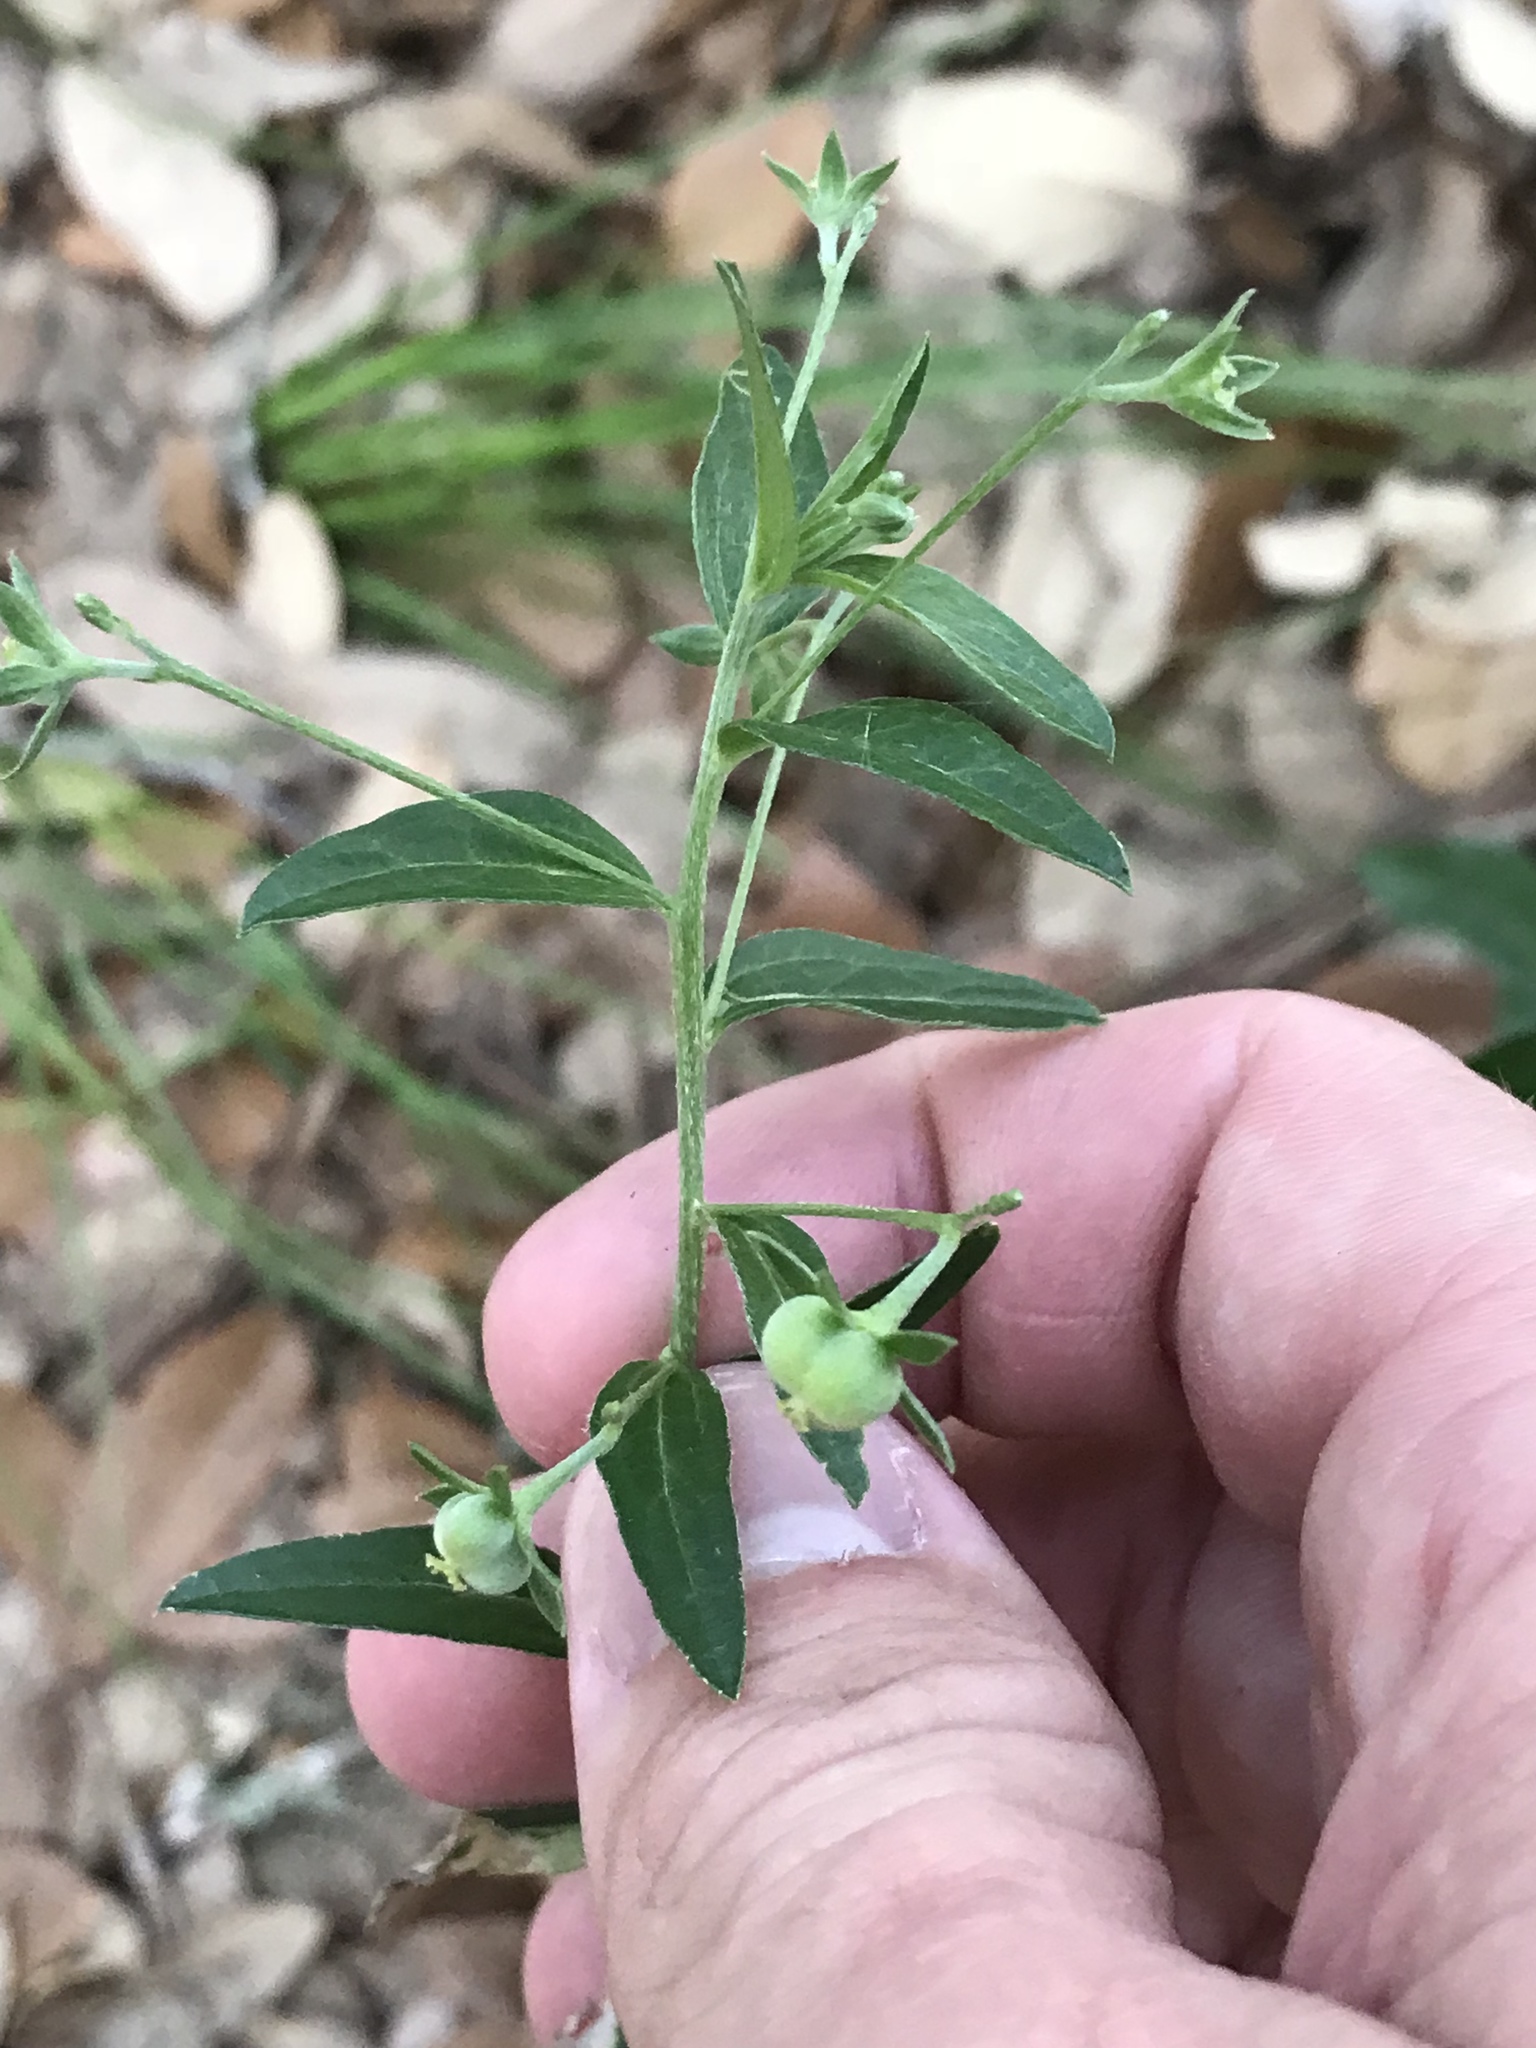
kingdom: Plantae
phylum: Tracheophyta
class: Magnoliopsida
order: Malpighiales
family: Euphorbiaceae
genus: Ditaxis
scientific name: Ditaxis mercurialina
